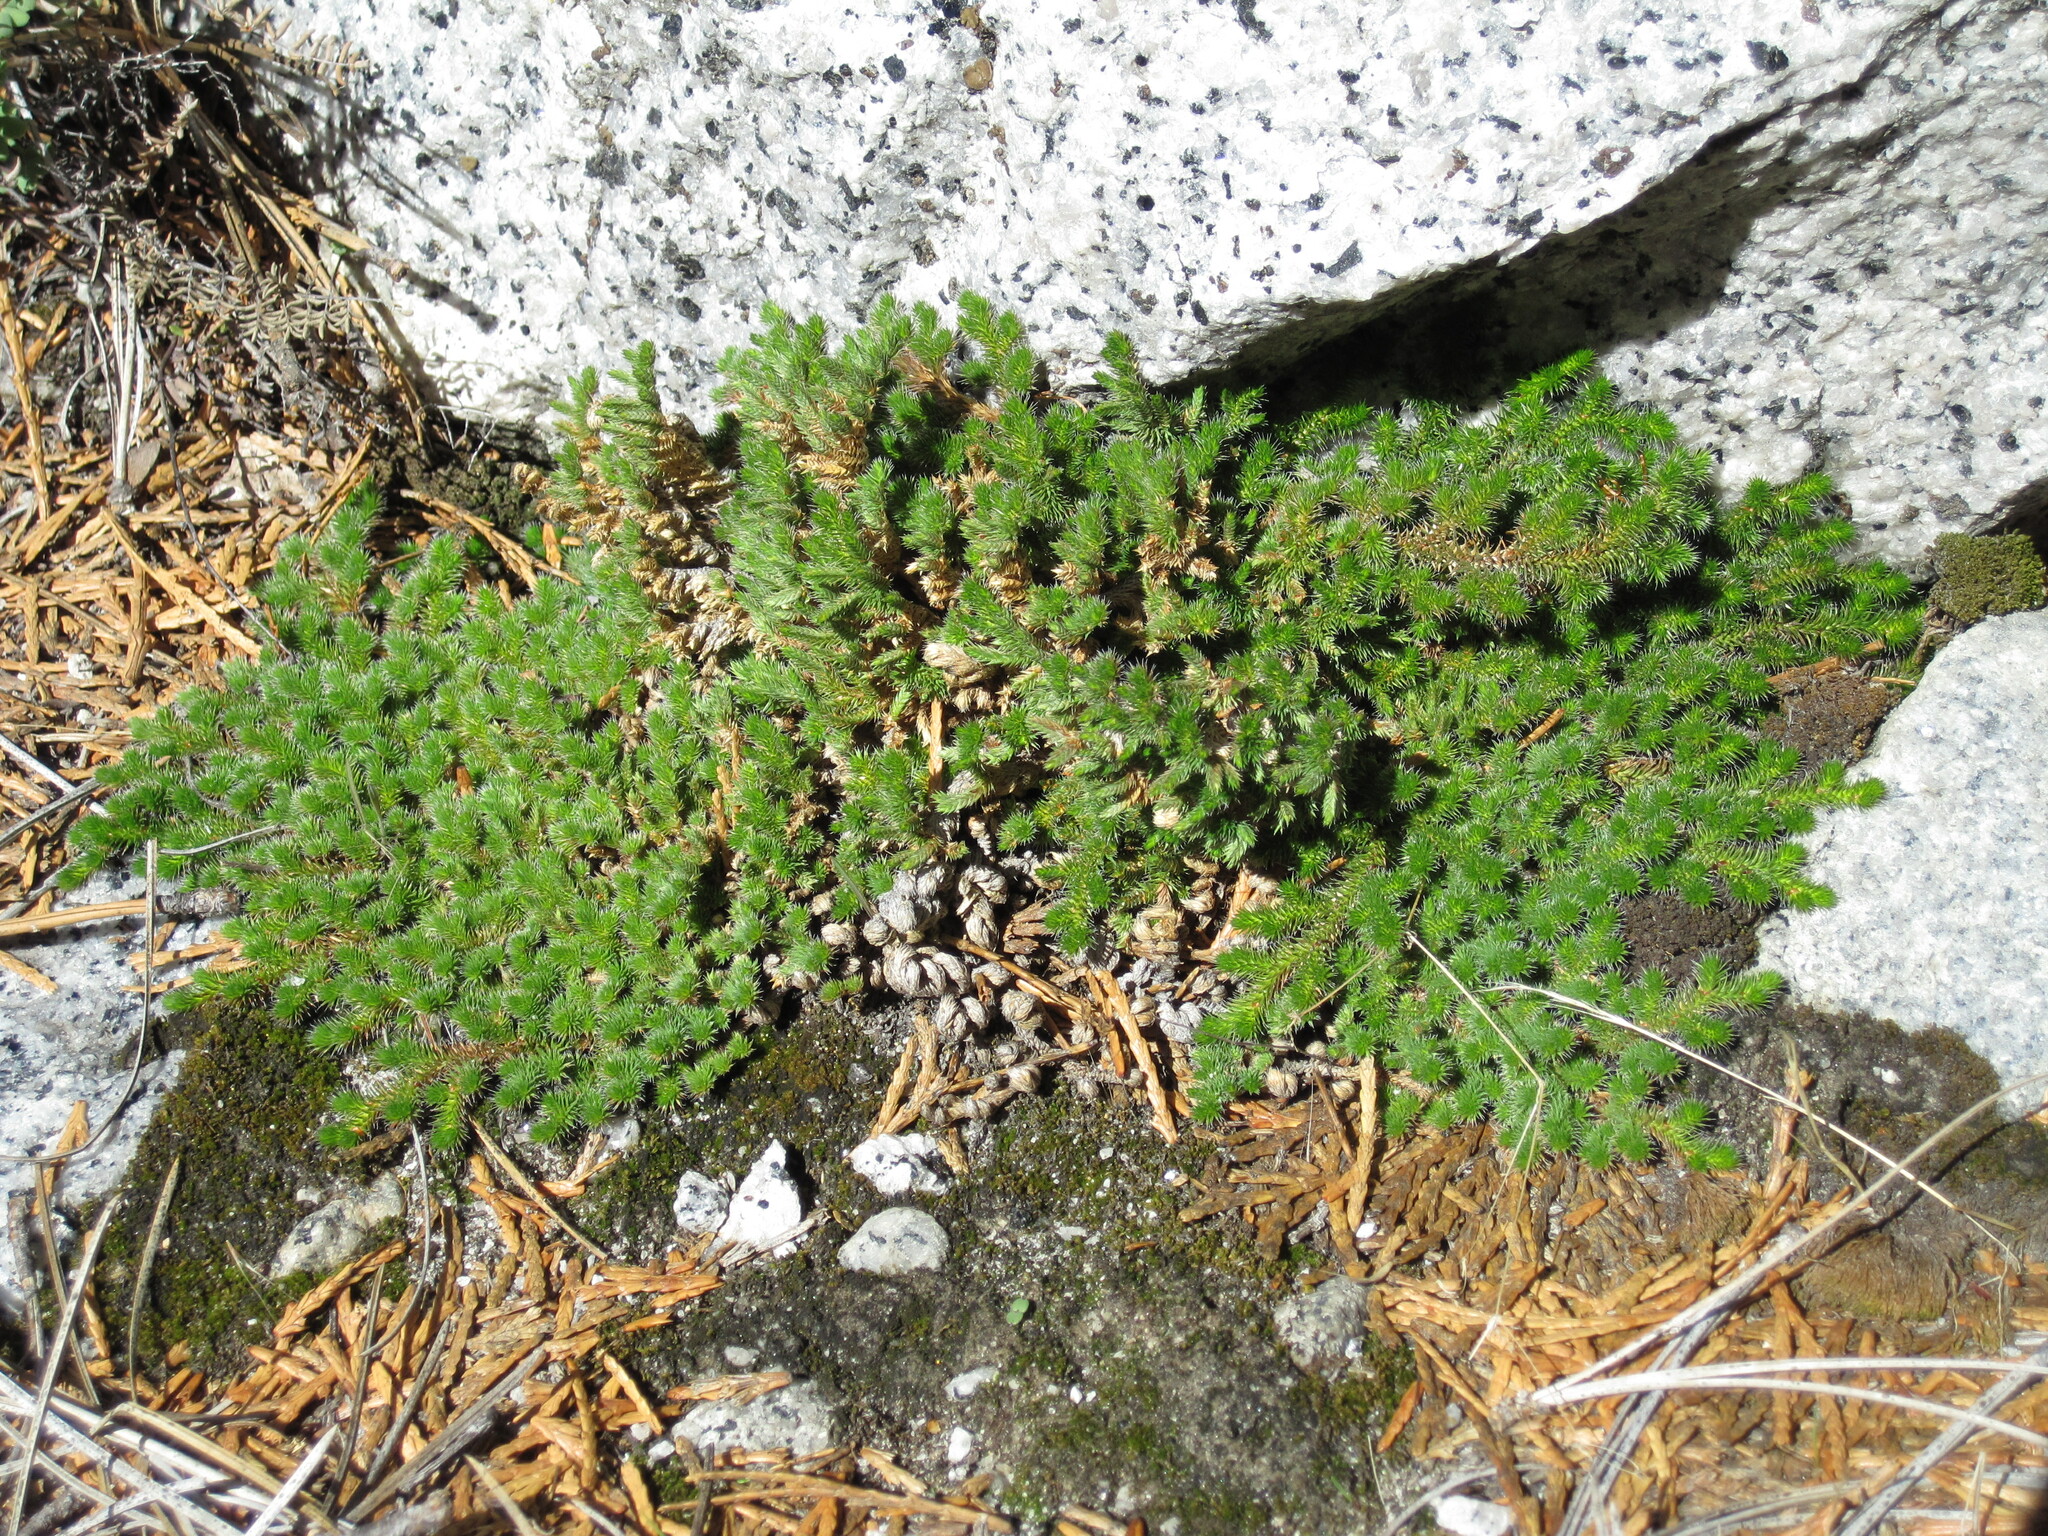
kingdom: Plantae
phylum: Tracheophyta
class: Lycopodiopsida
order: Selaginellales
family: Selaginellaceae
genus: Selaginella
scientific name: Selaginella hansenii
